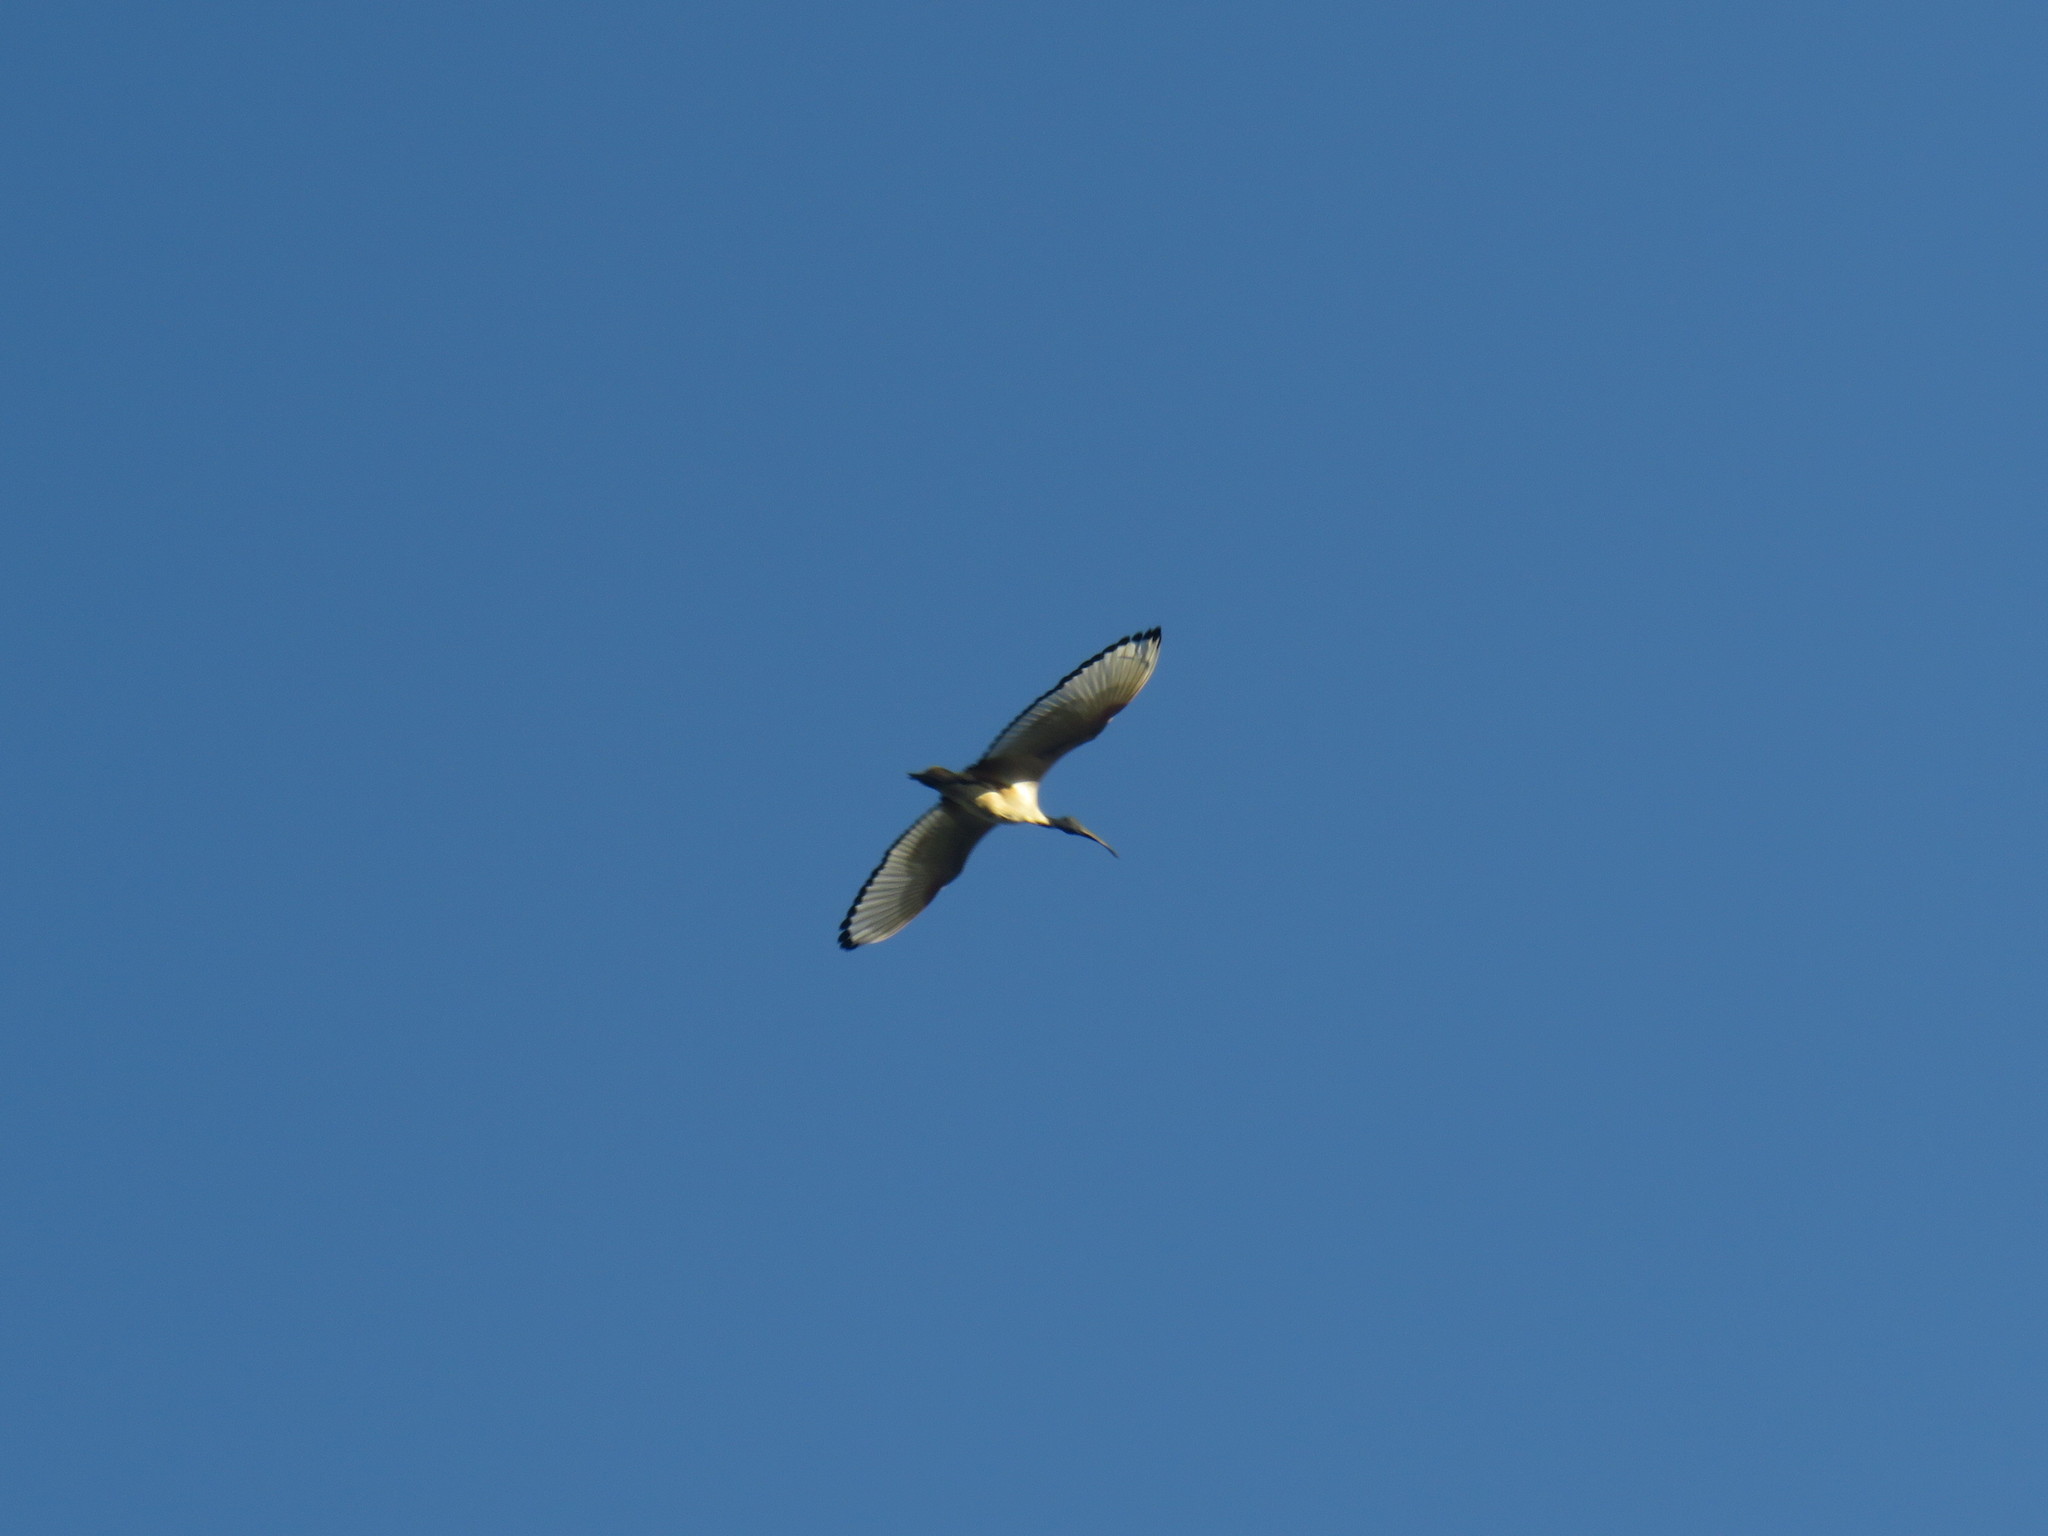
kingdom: Animalia
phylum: Chordata
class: Aves
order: Pelecaniformes
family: Threskiornithidae
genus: Threskiornis
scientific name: Threskiornis aethiopicus
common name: Sacred ibis
